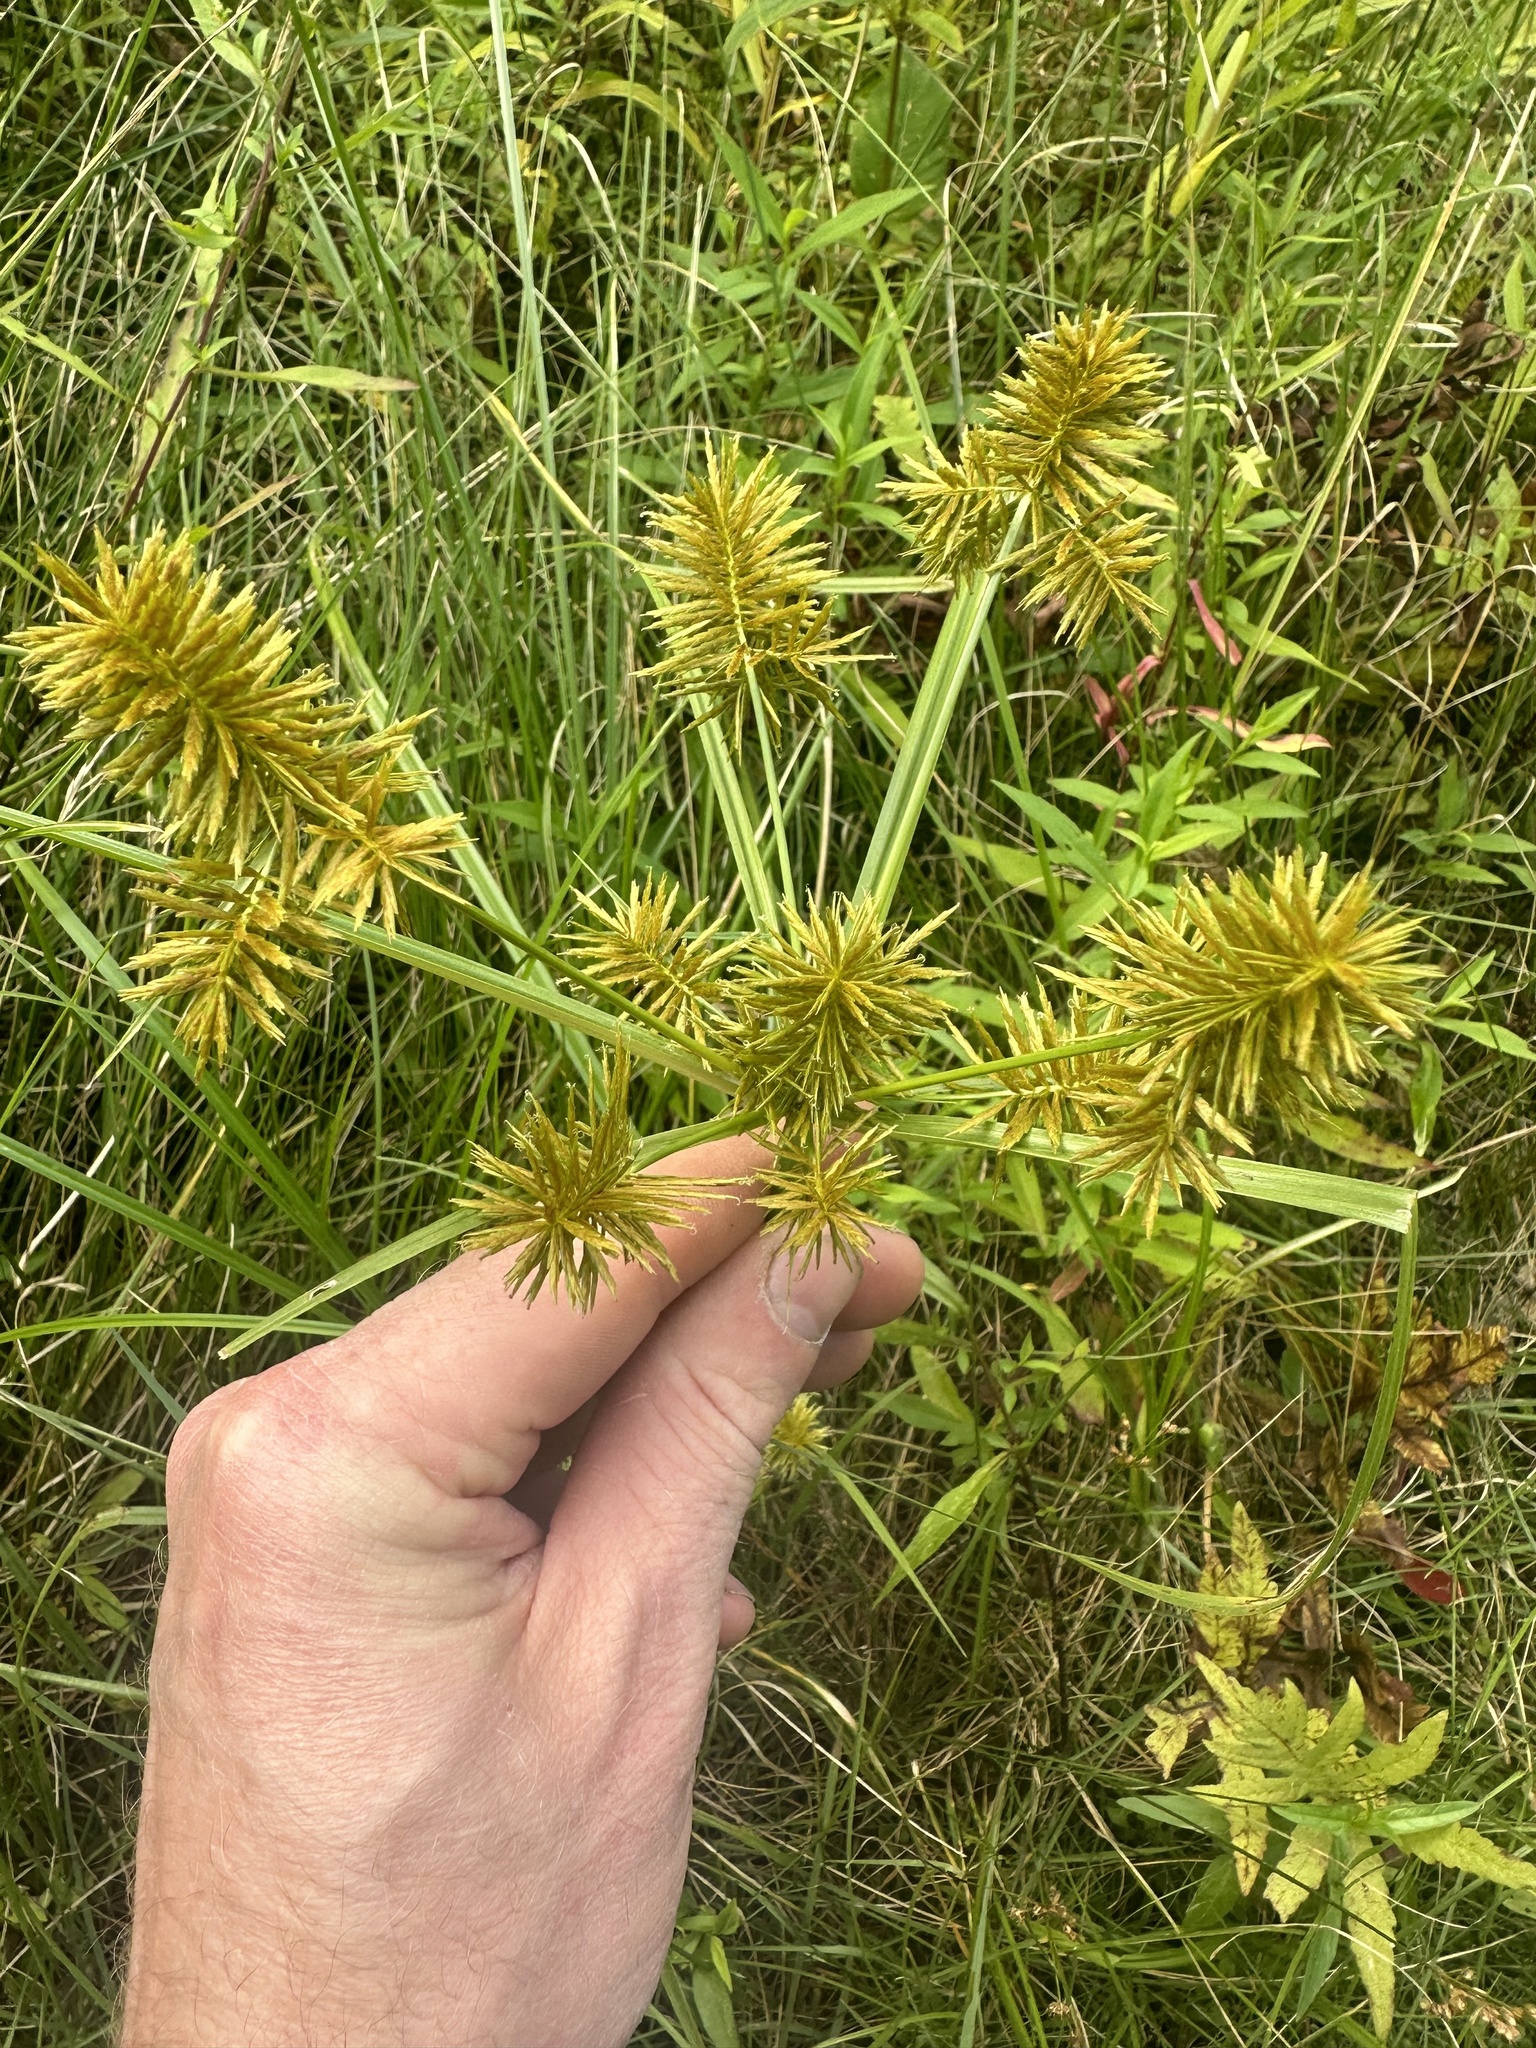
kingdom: Plantae
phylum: Tracheophyta
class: Liliopsida
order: Poales
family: Cyperaceae
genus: Cyperus
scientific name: Cyperus strigosus
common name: False nutsedge
